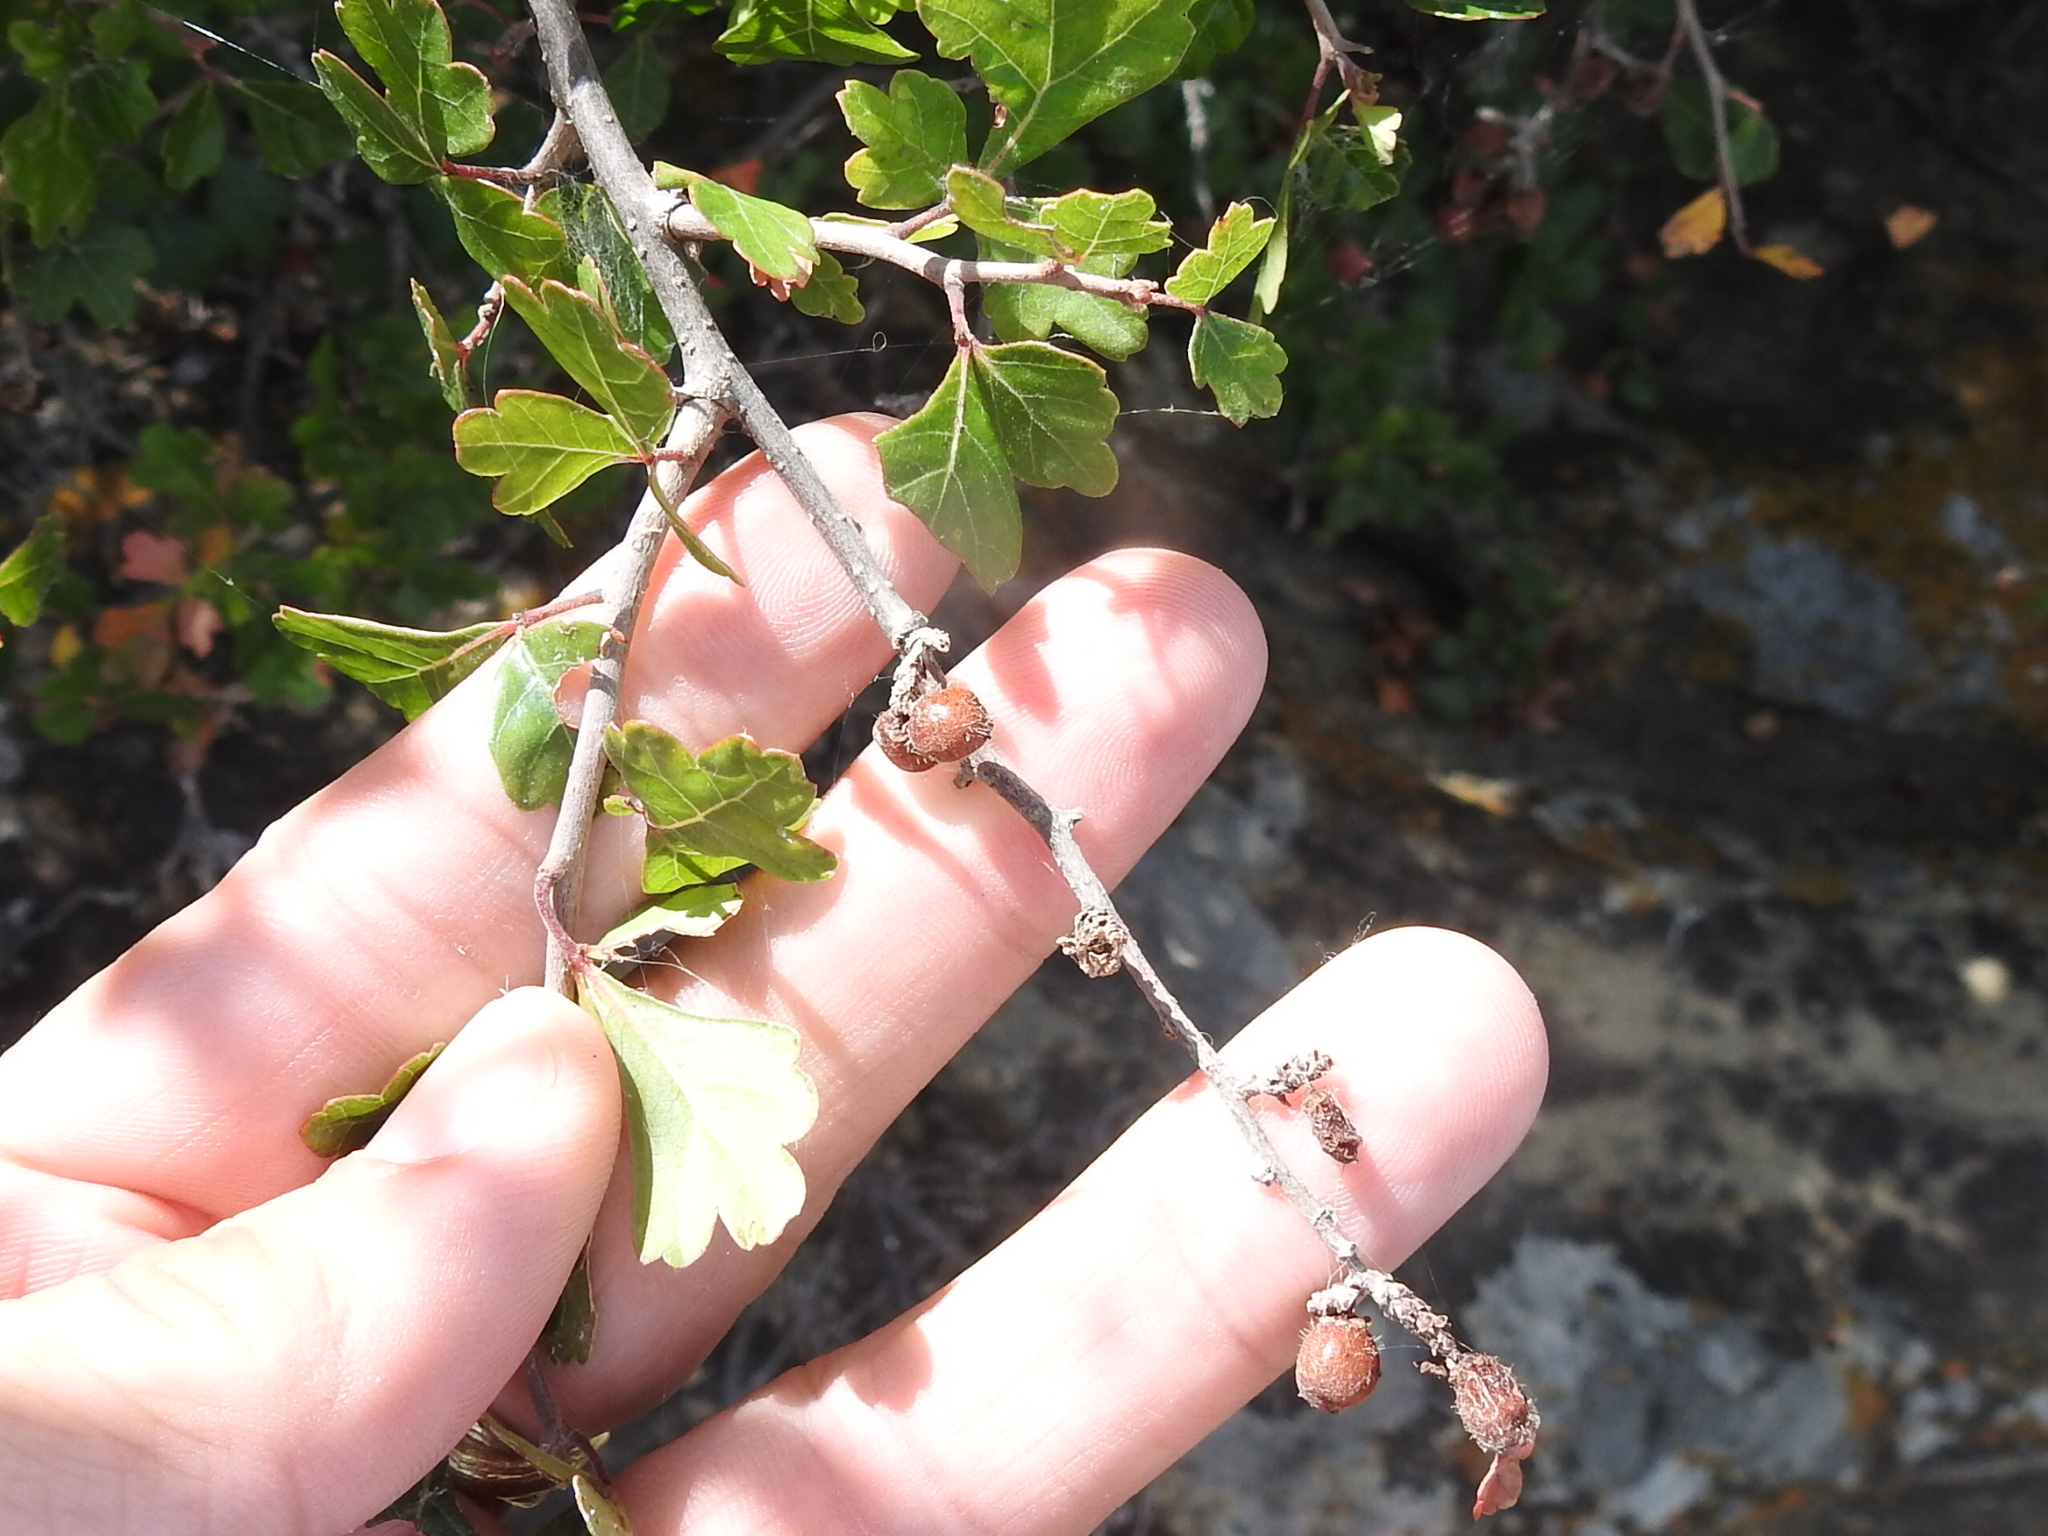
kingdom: Plantae
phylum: Tracheophyta
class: Magnoliopsida
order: Sapindales
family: Anacardiaceae
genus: Rhus
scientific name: Rhus aromatica
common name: Aromatic sumac
